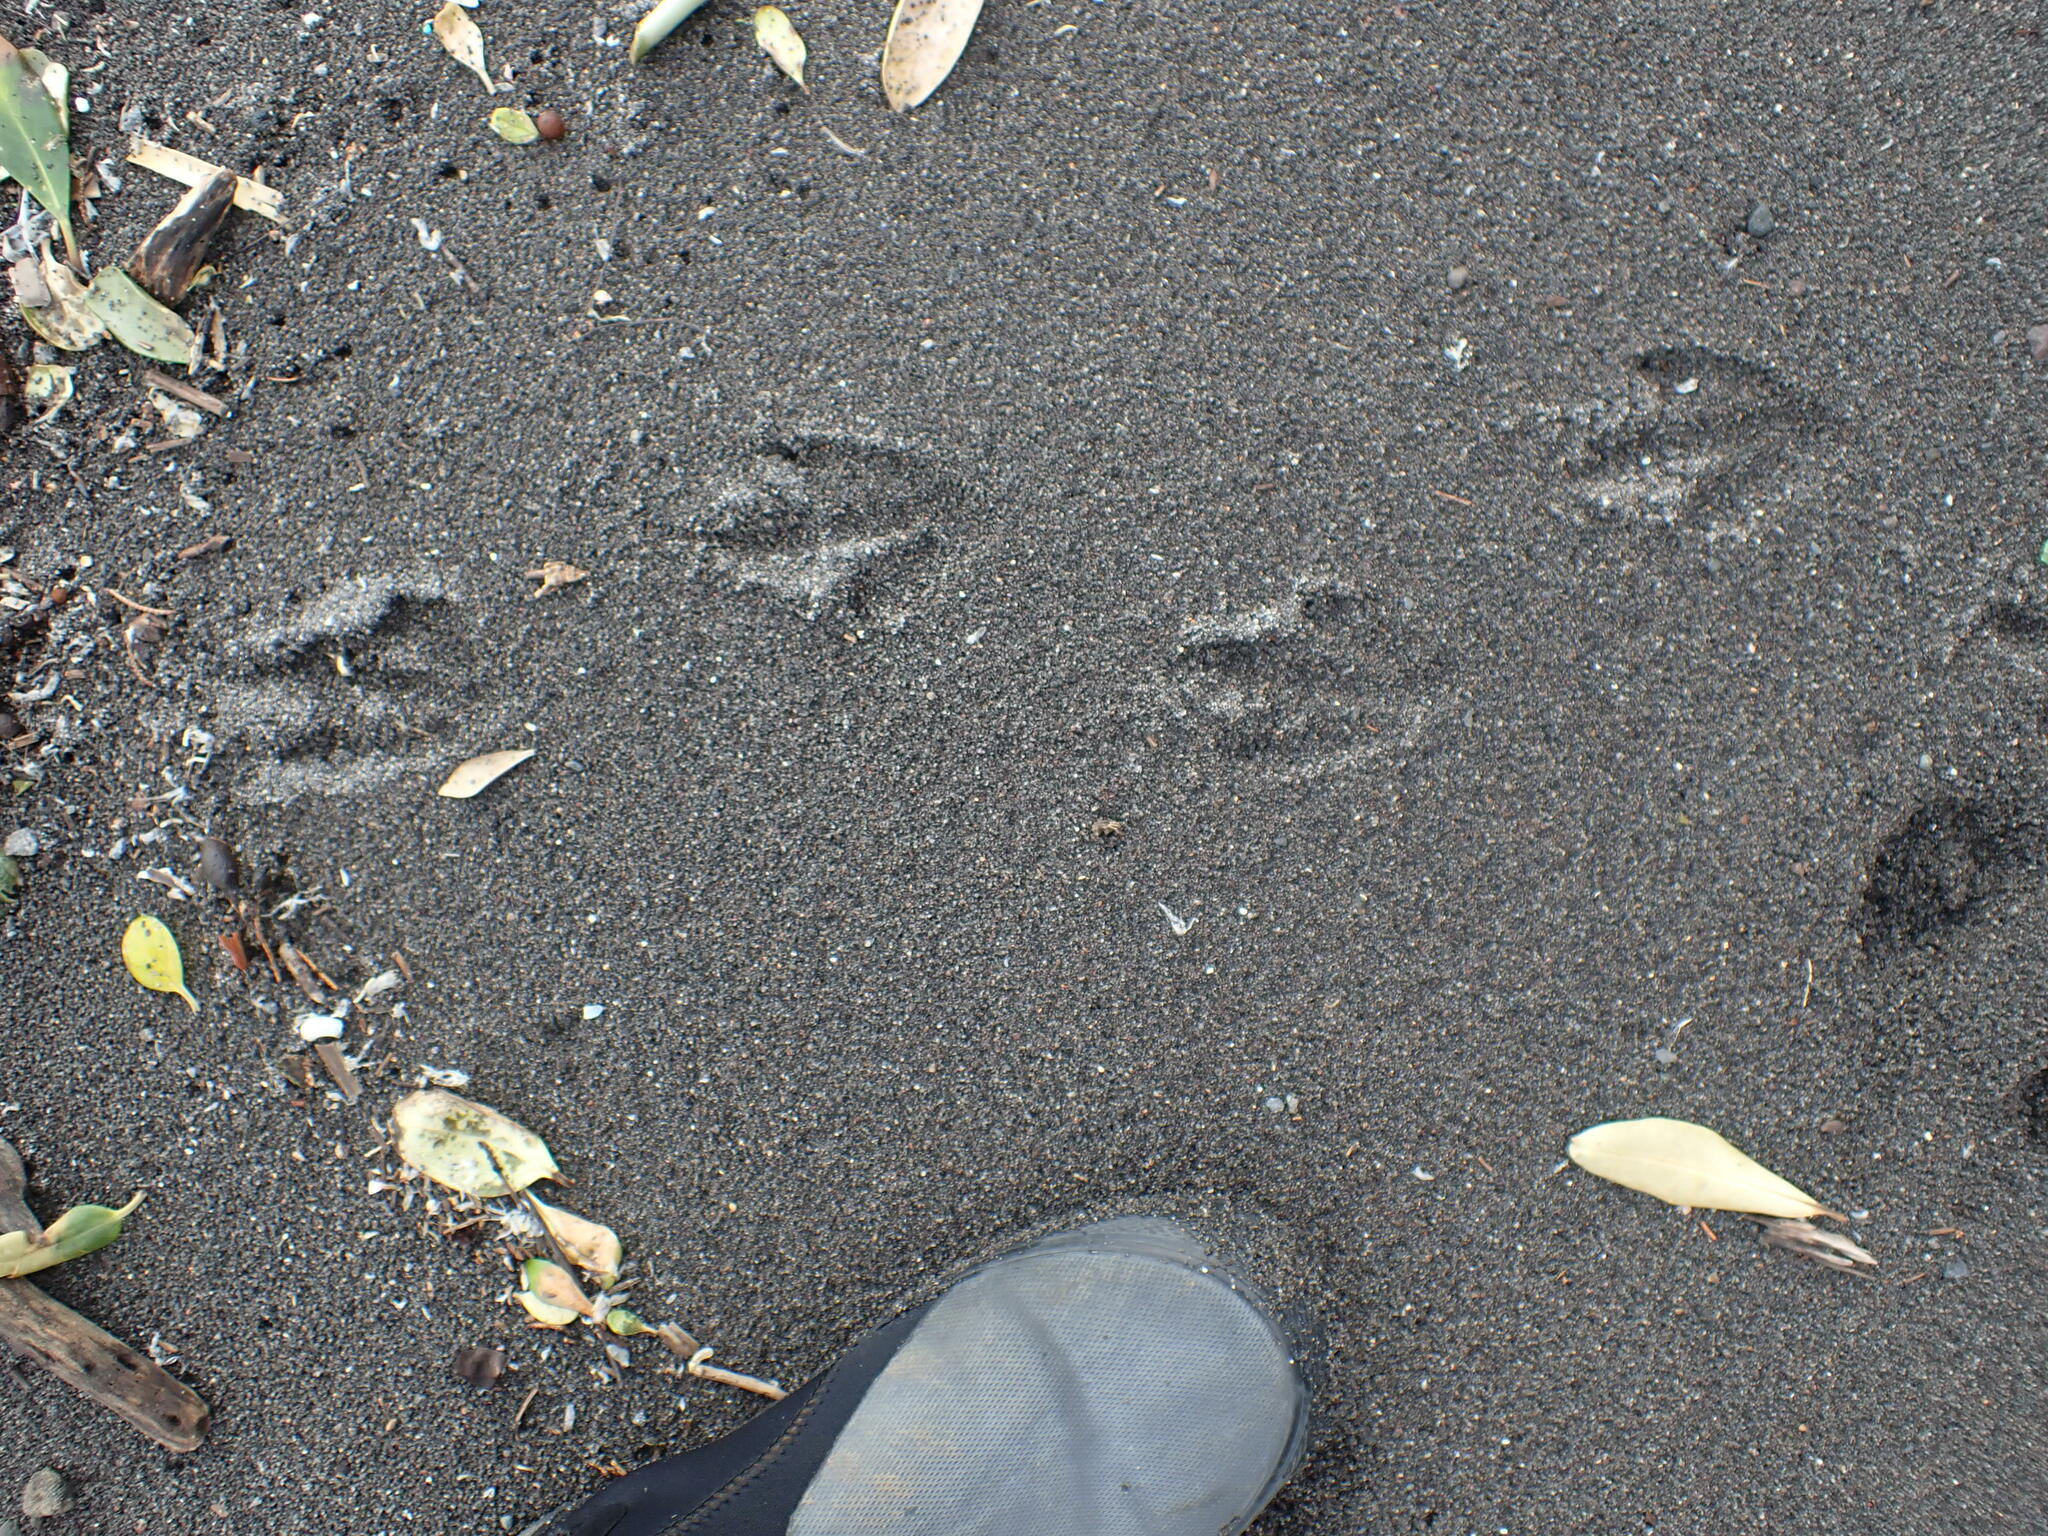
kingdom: Animalia
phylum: Chordata
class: Aves
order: Sphenisciformes
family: Spheniscidae
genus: Eudyptula
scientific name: Eudyptula minor
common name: Little penguin
